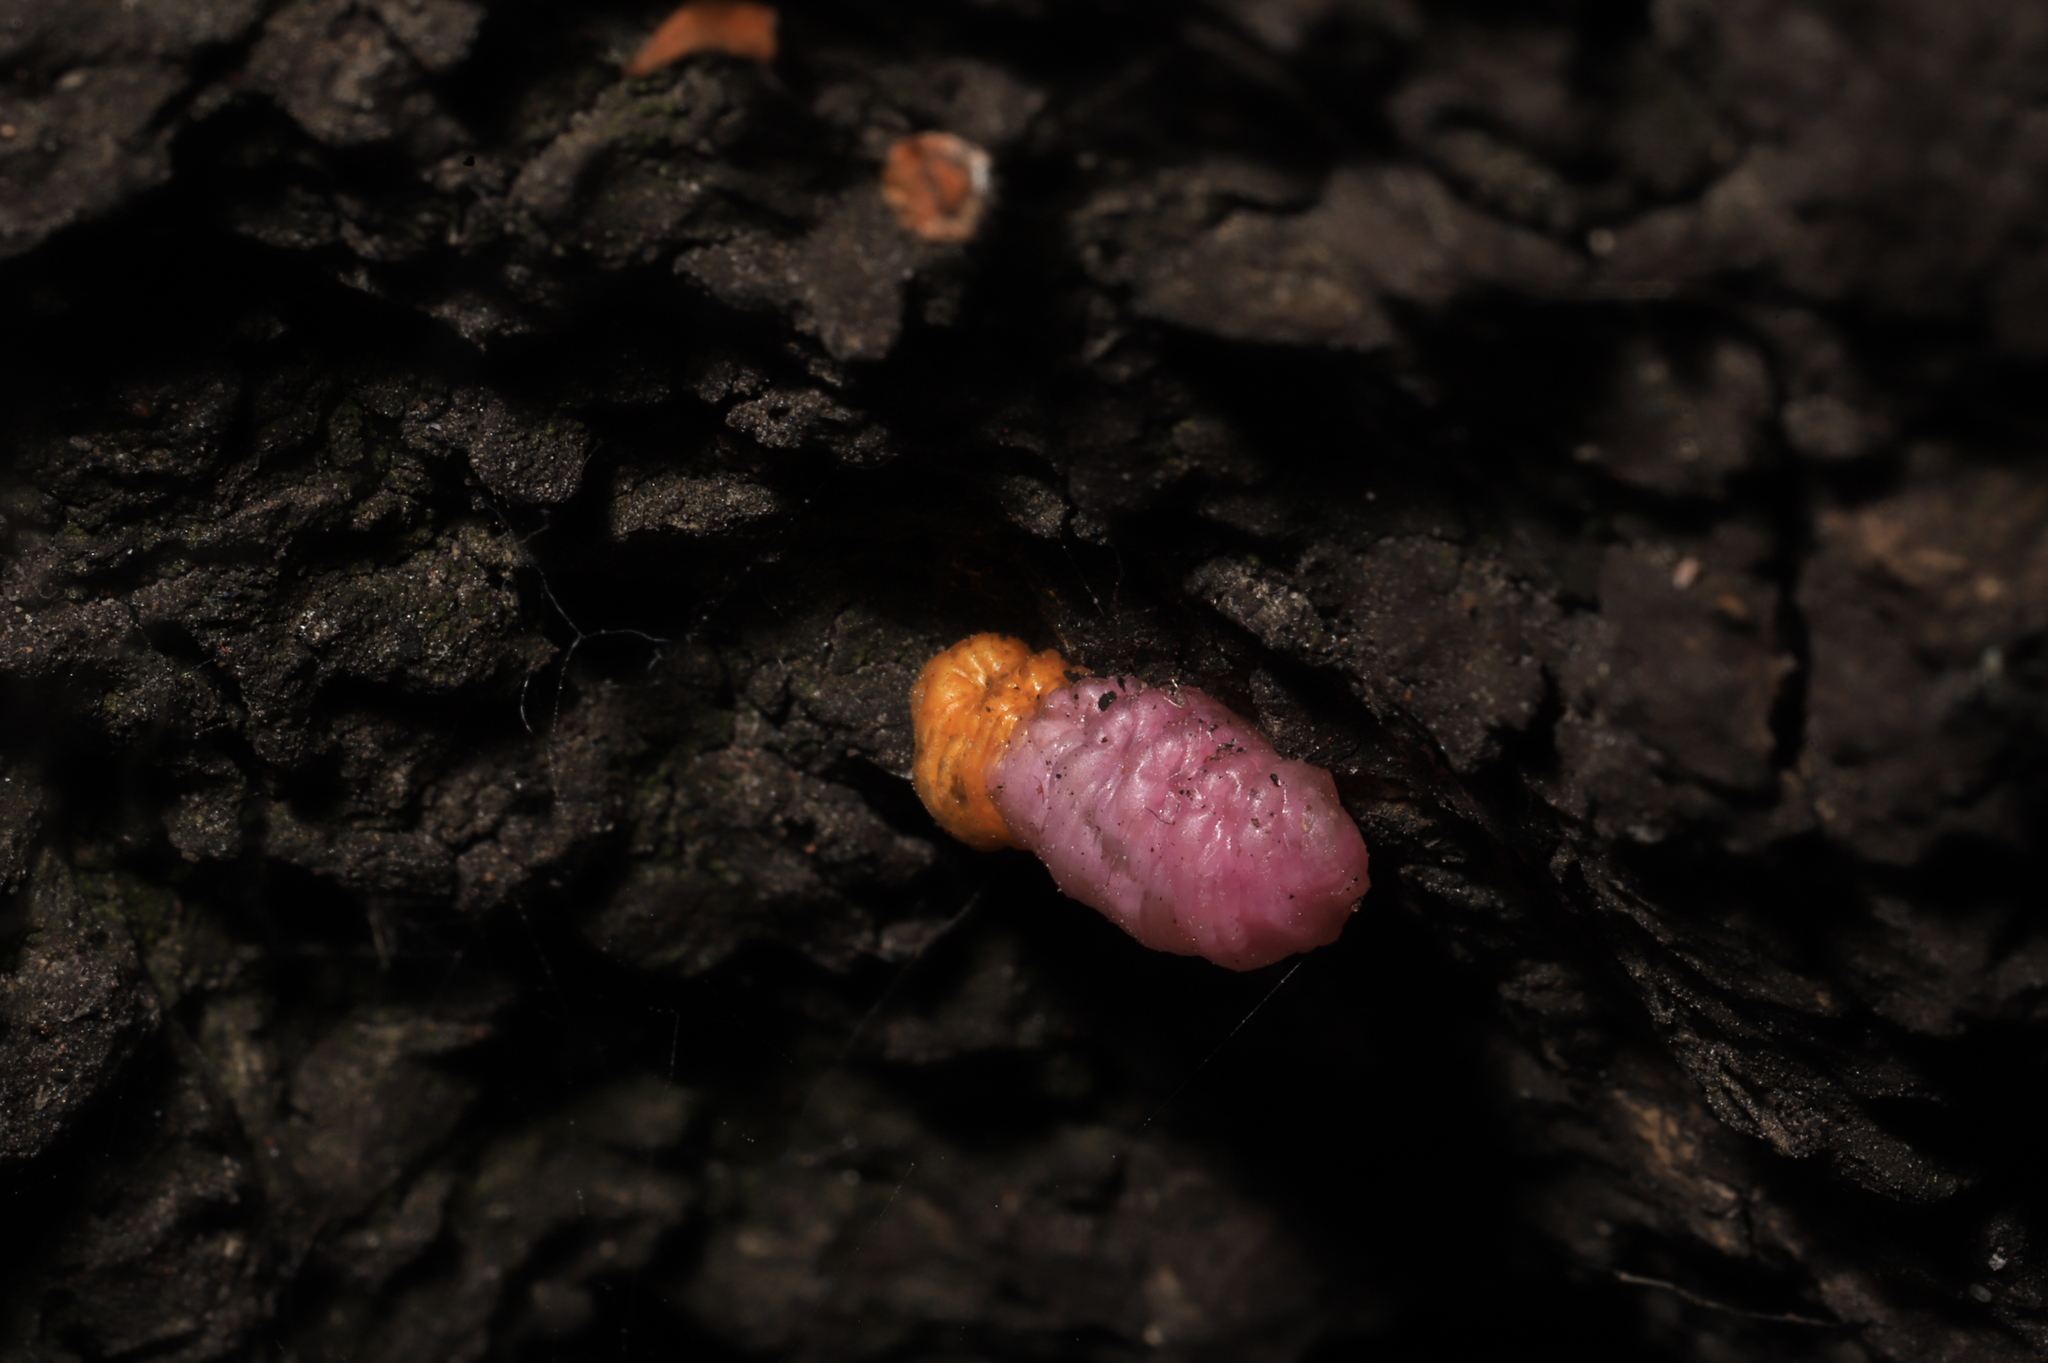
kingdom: Animalia
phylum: Arthropoda
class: Insecta
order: Diptera
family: Syrphidae
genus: Mimocalla
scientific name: Mimocalla giganteus
